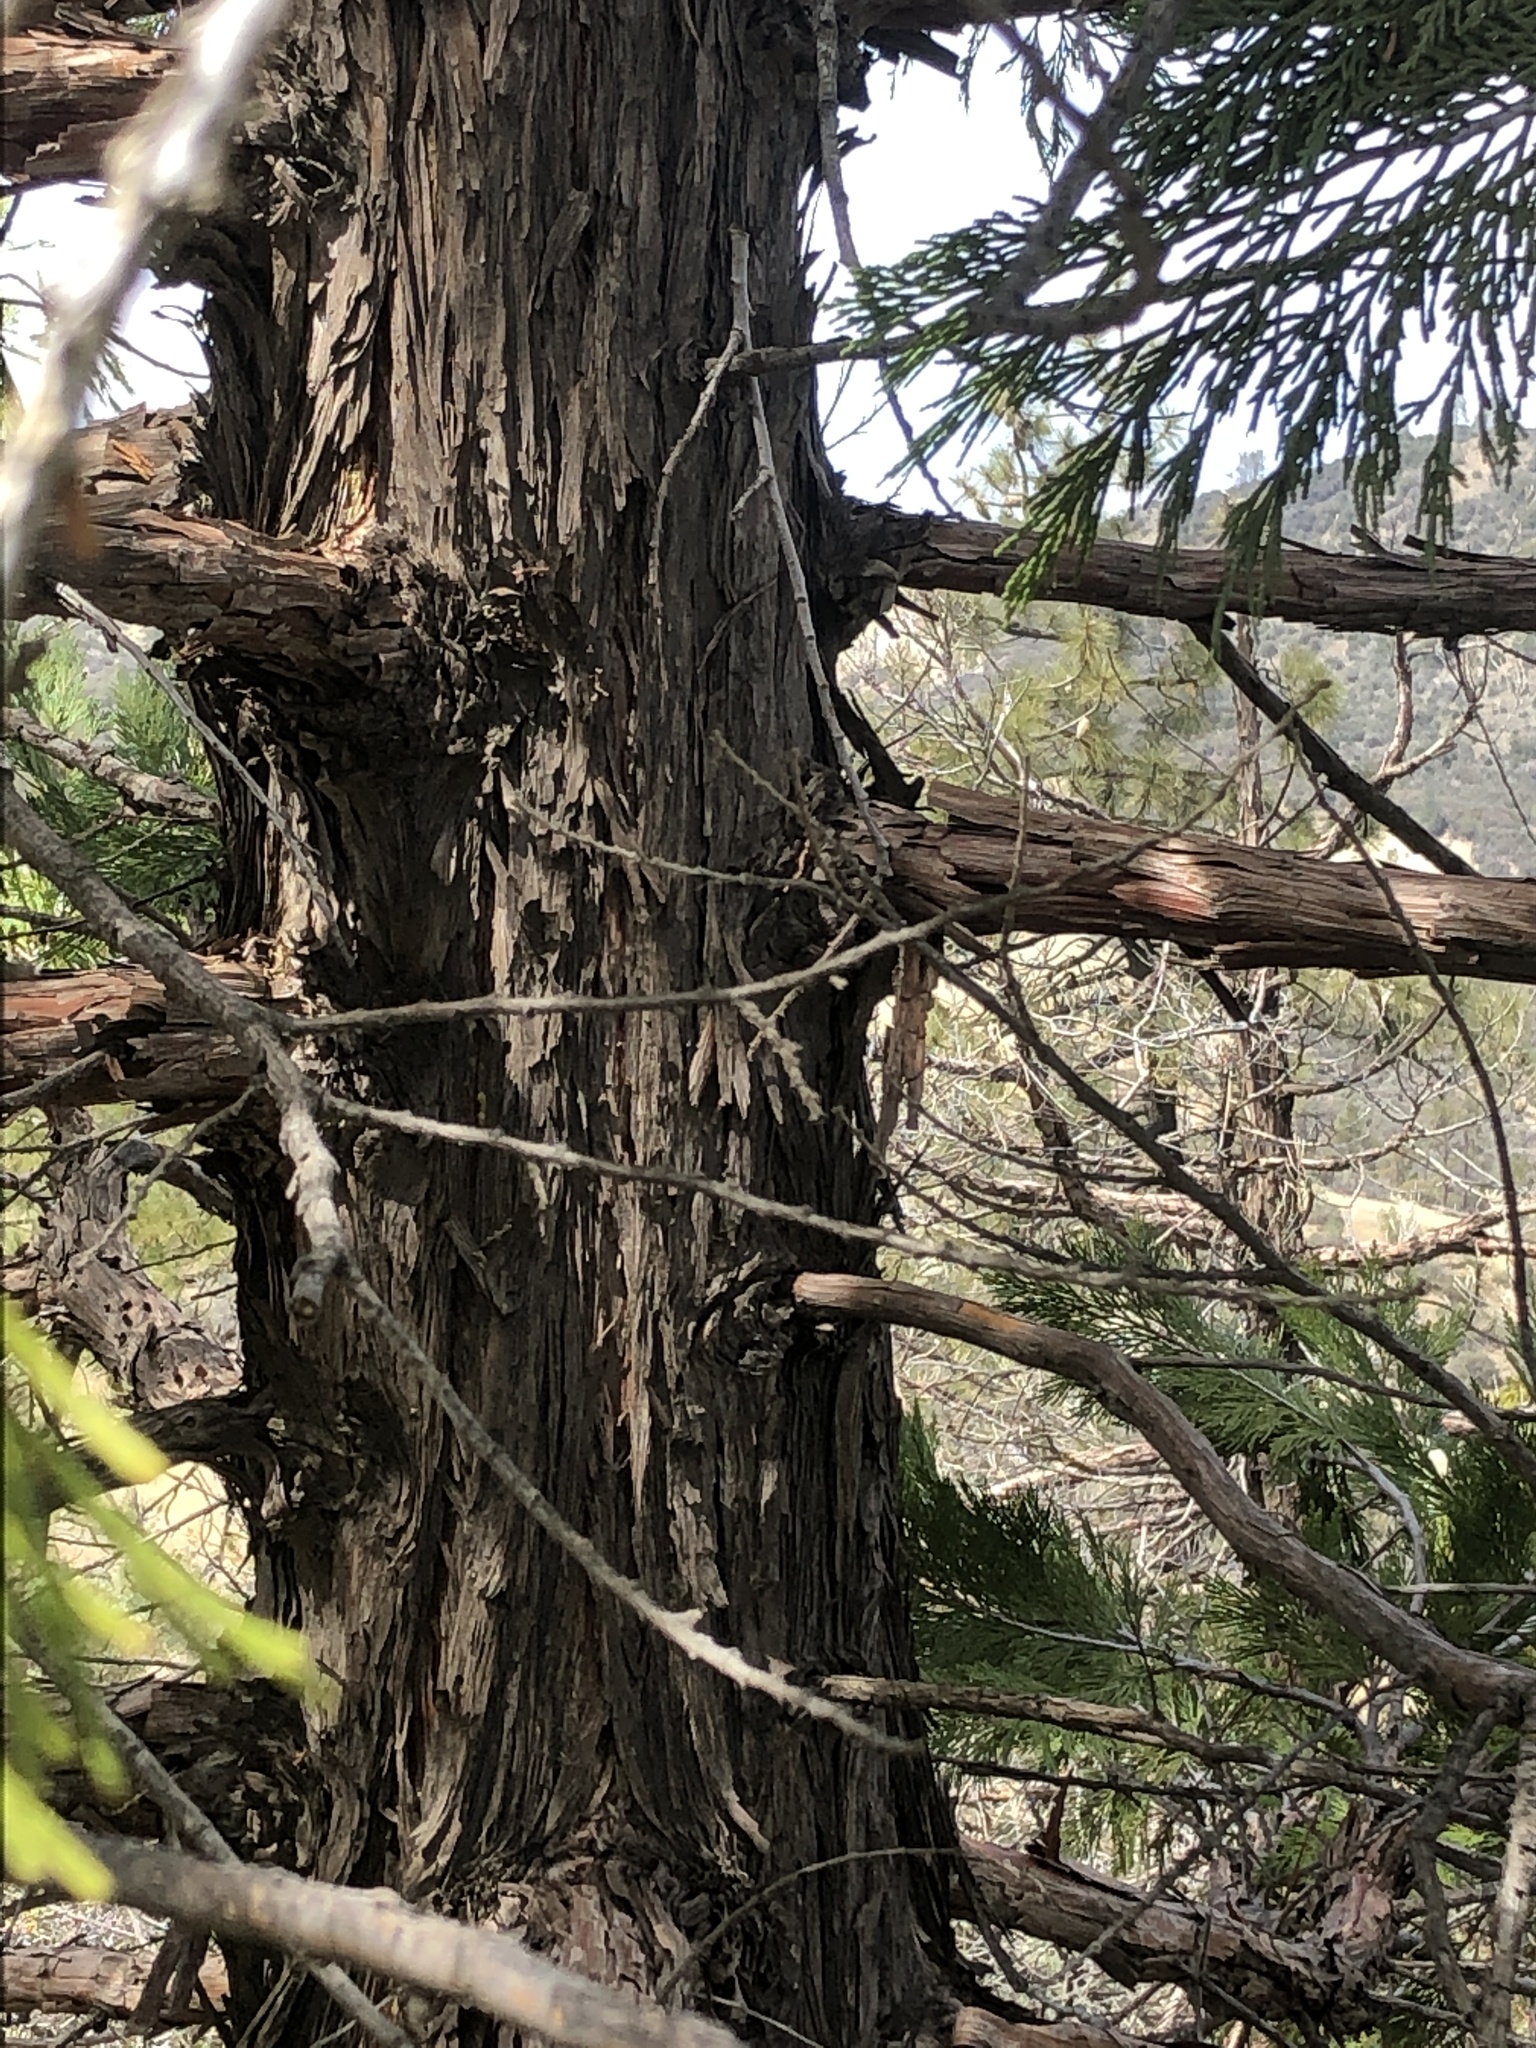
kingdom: Plantae
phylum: Tracheophyta
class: Pinopsida
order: Pinales
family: Cupressaceae
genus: Calocedrus
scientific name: Calocedrus decurrens
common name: Californian incense-cedar
